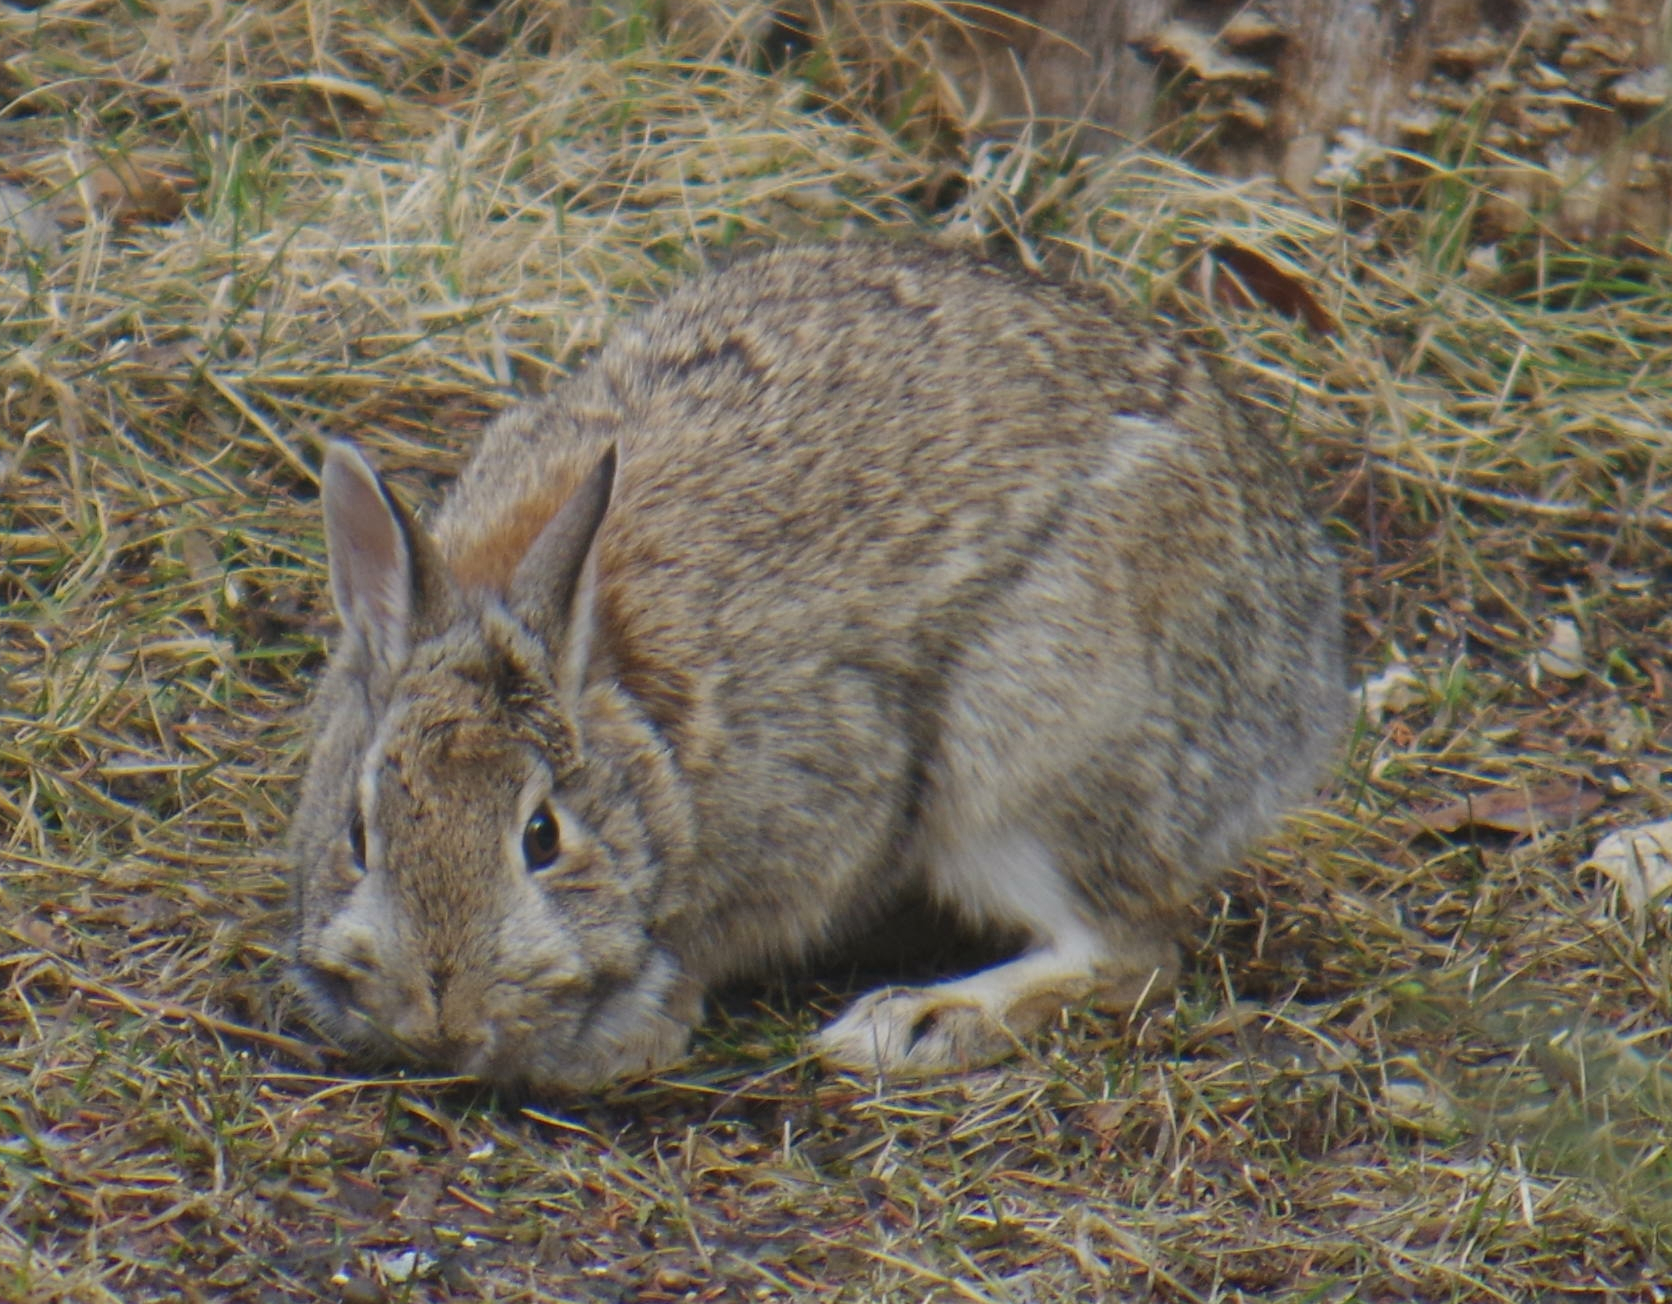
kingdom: Animalia
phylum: Chordata
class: Mammalia
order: Lagomorpha
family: Leporidae
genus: Sylvilagus
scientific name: Sylvilagus floridanus
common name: Eastern cottontail
